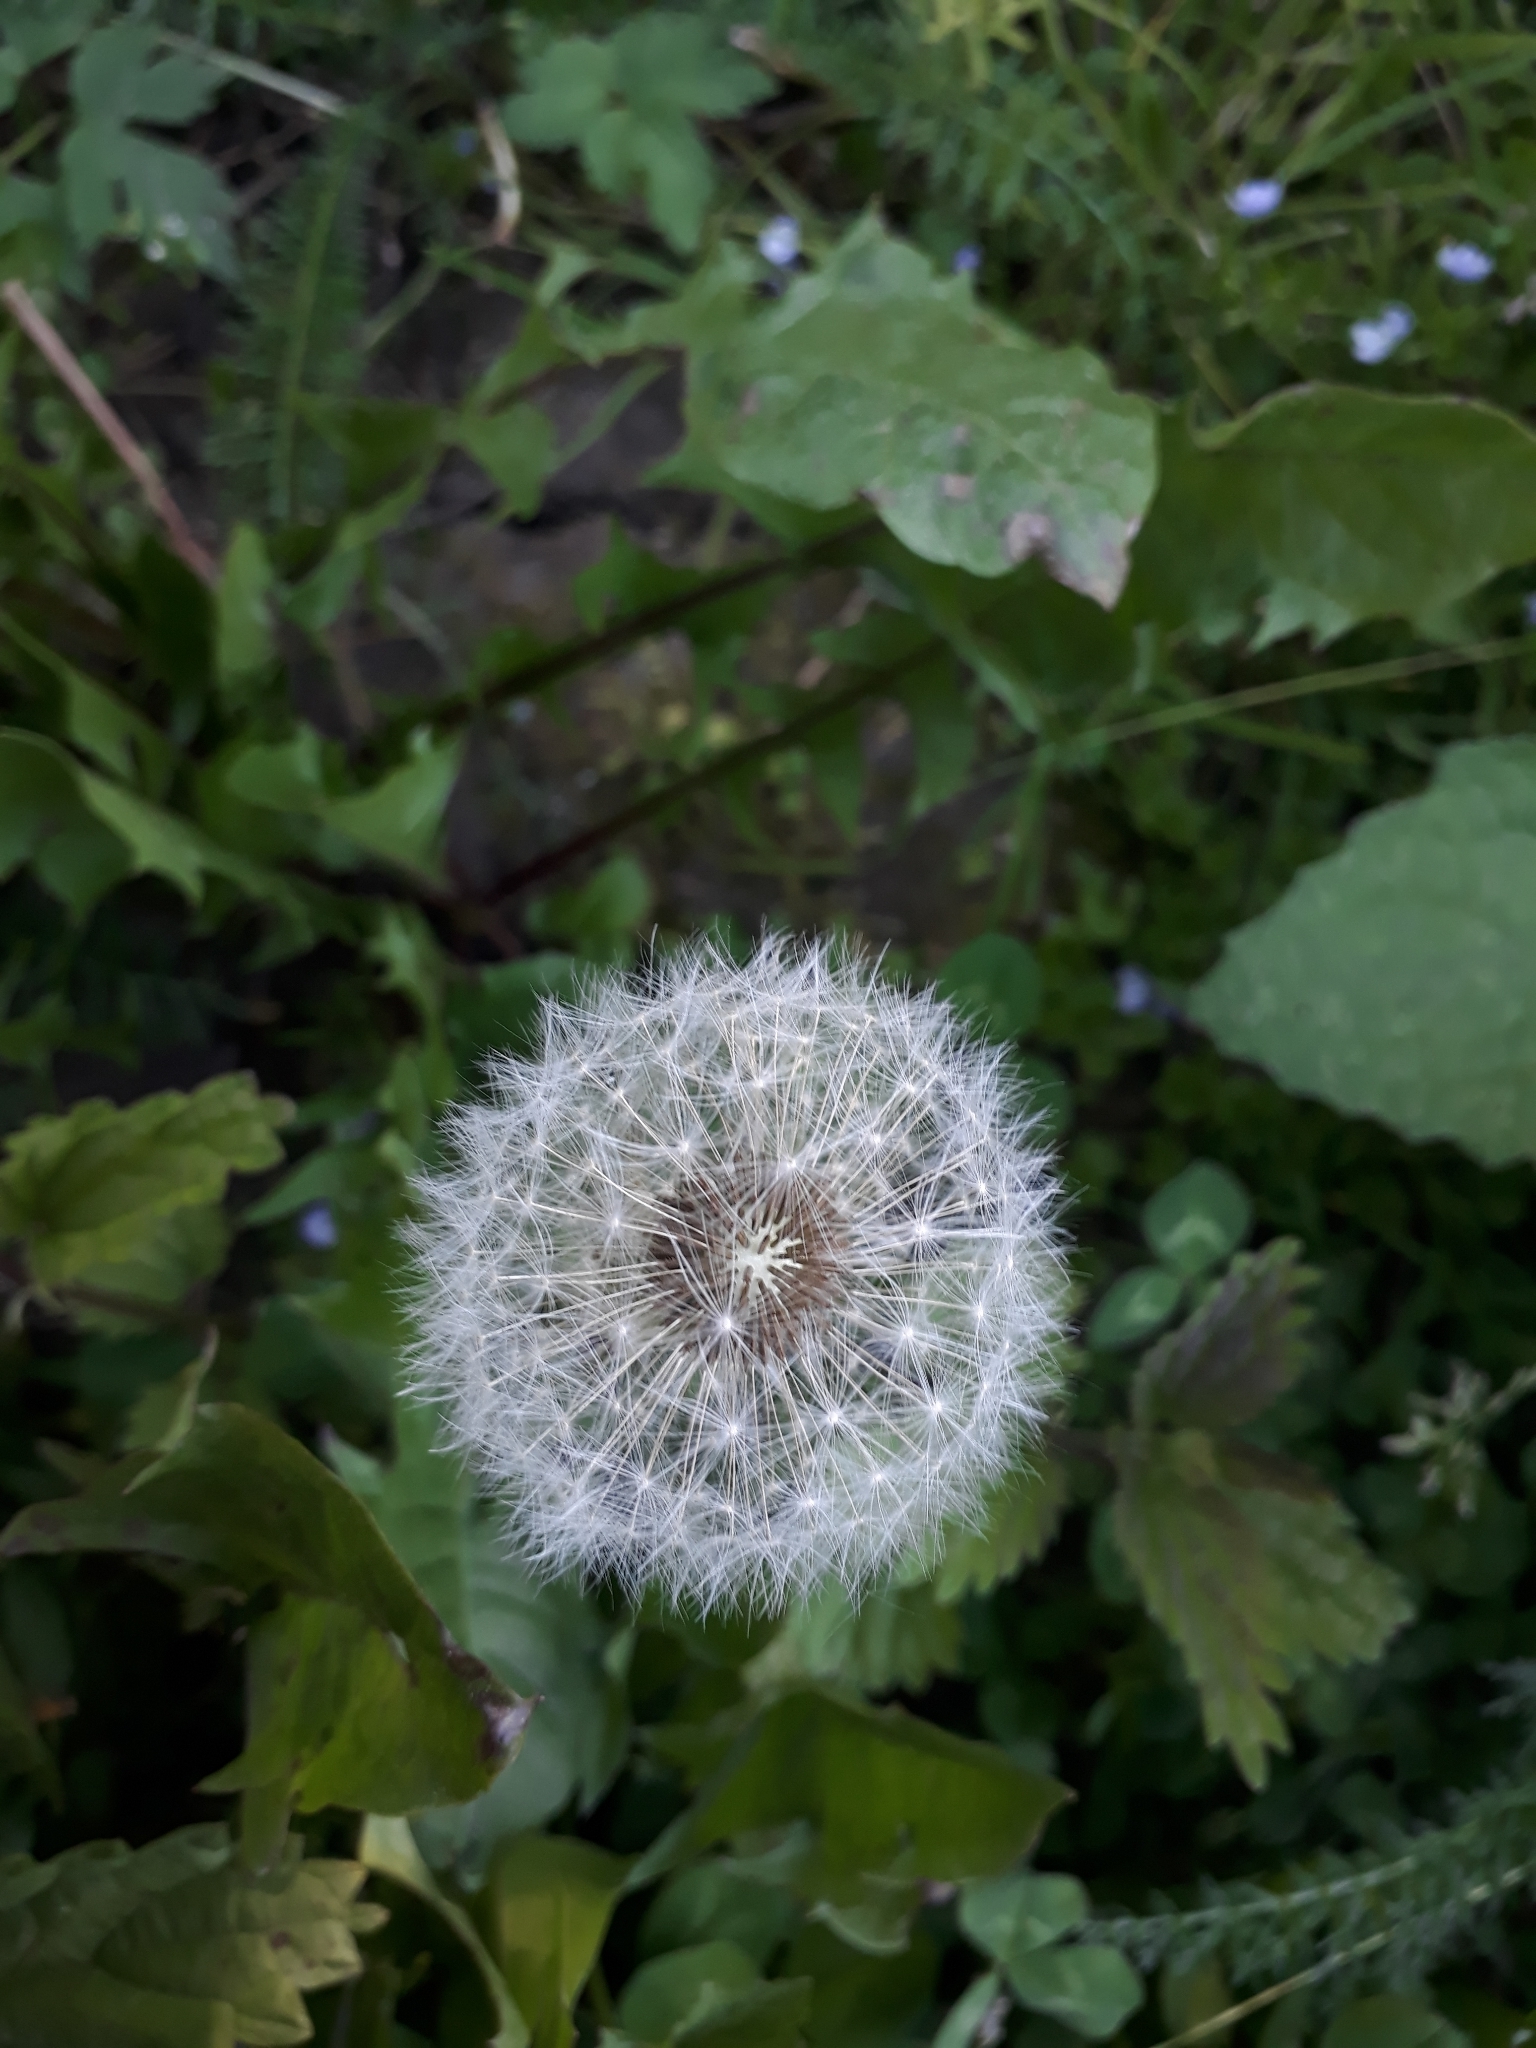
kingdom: Plantae
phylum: Tracheophyta
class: Magnoliopsida
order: Asterales
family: Asteraceae
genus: Taraxacum
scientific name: Taraxacum officinale
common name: Common dandelion
